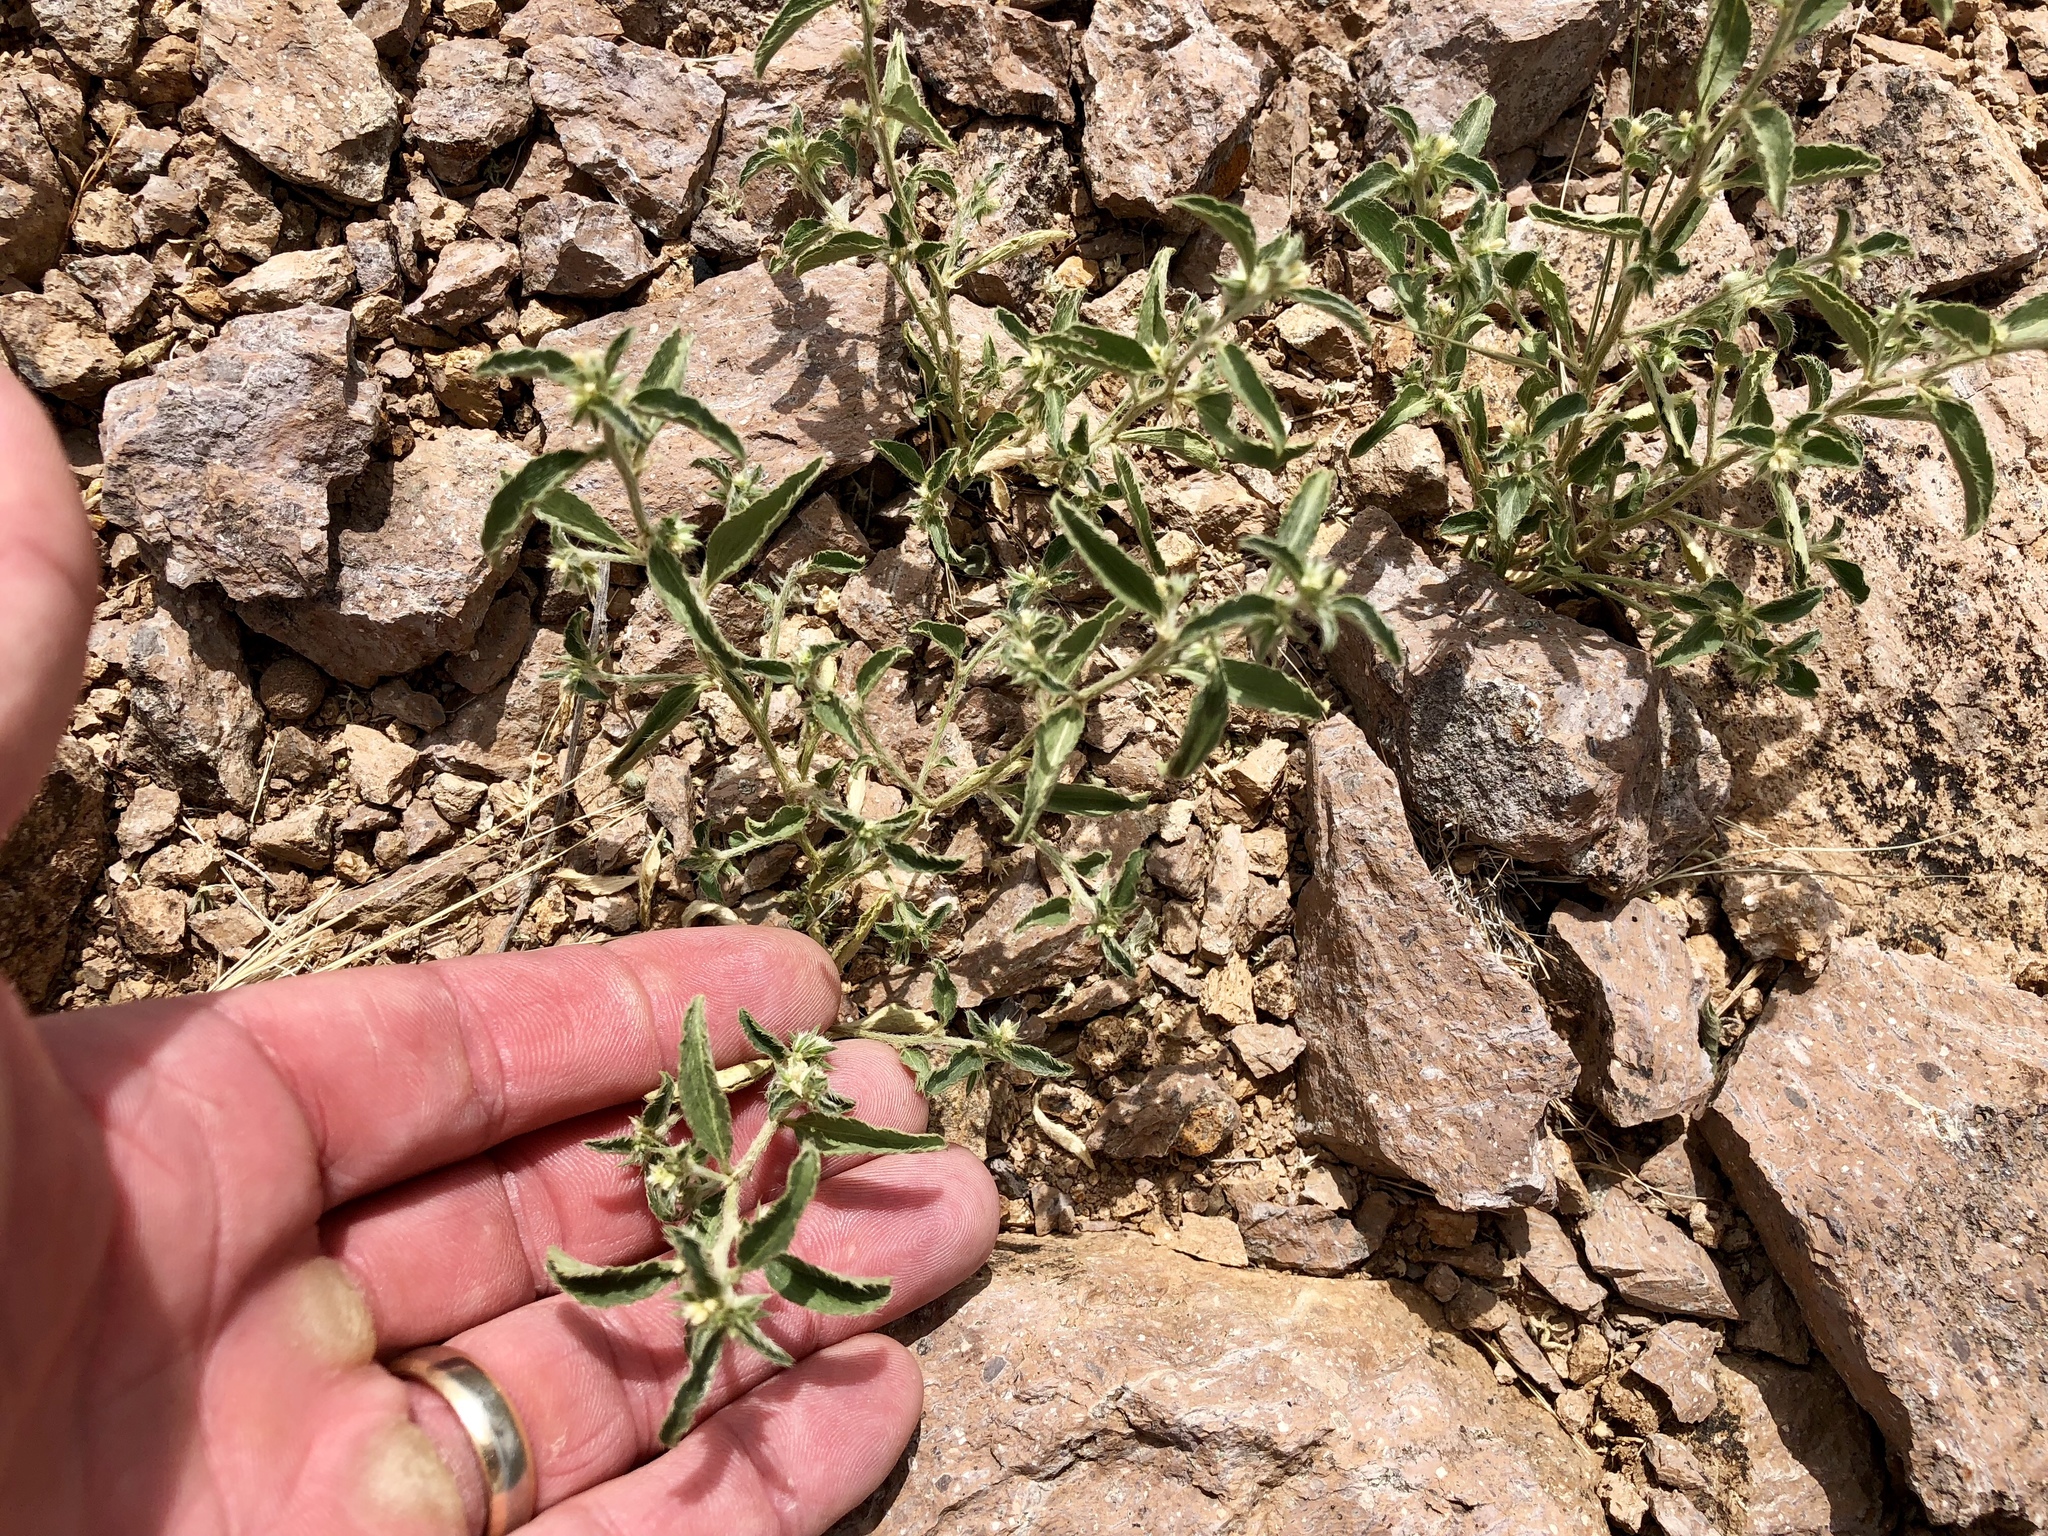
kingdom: Plantae
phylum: Tracheophyta
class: Magnoliopsida
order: Malpighiales
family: Euphorbiaceae
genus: Ditaxis
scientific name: Ditaxis serrata
